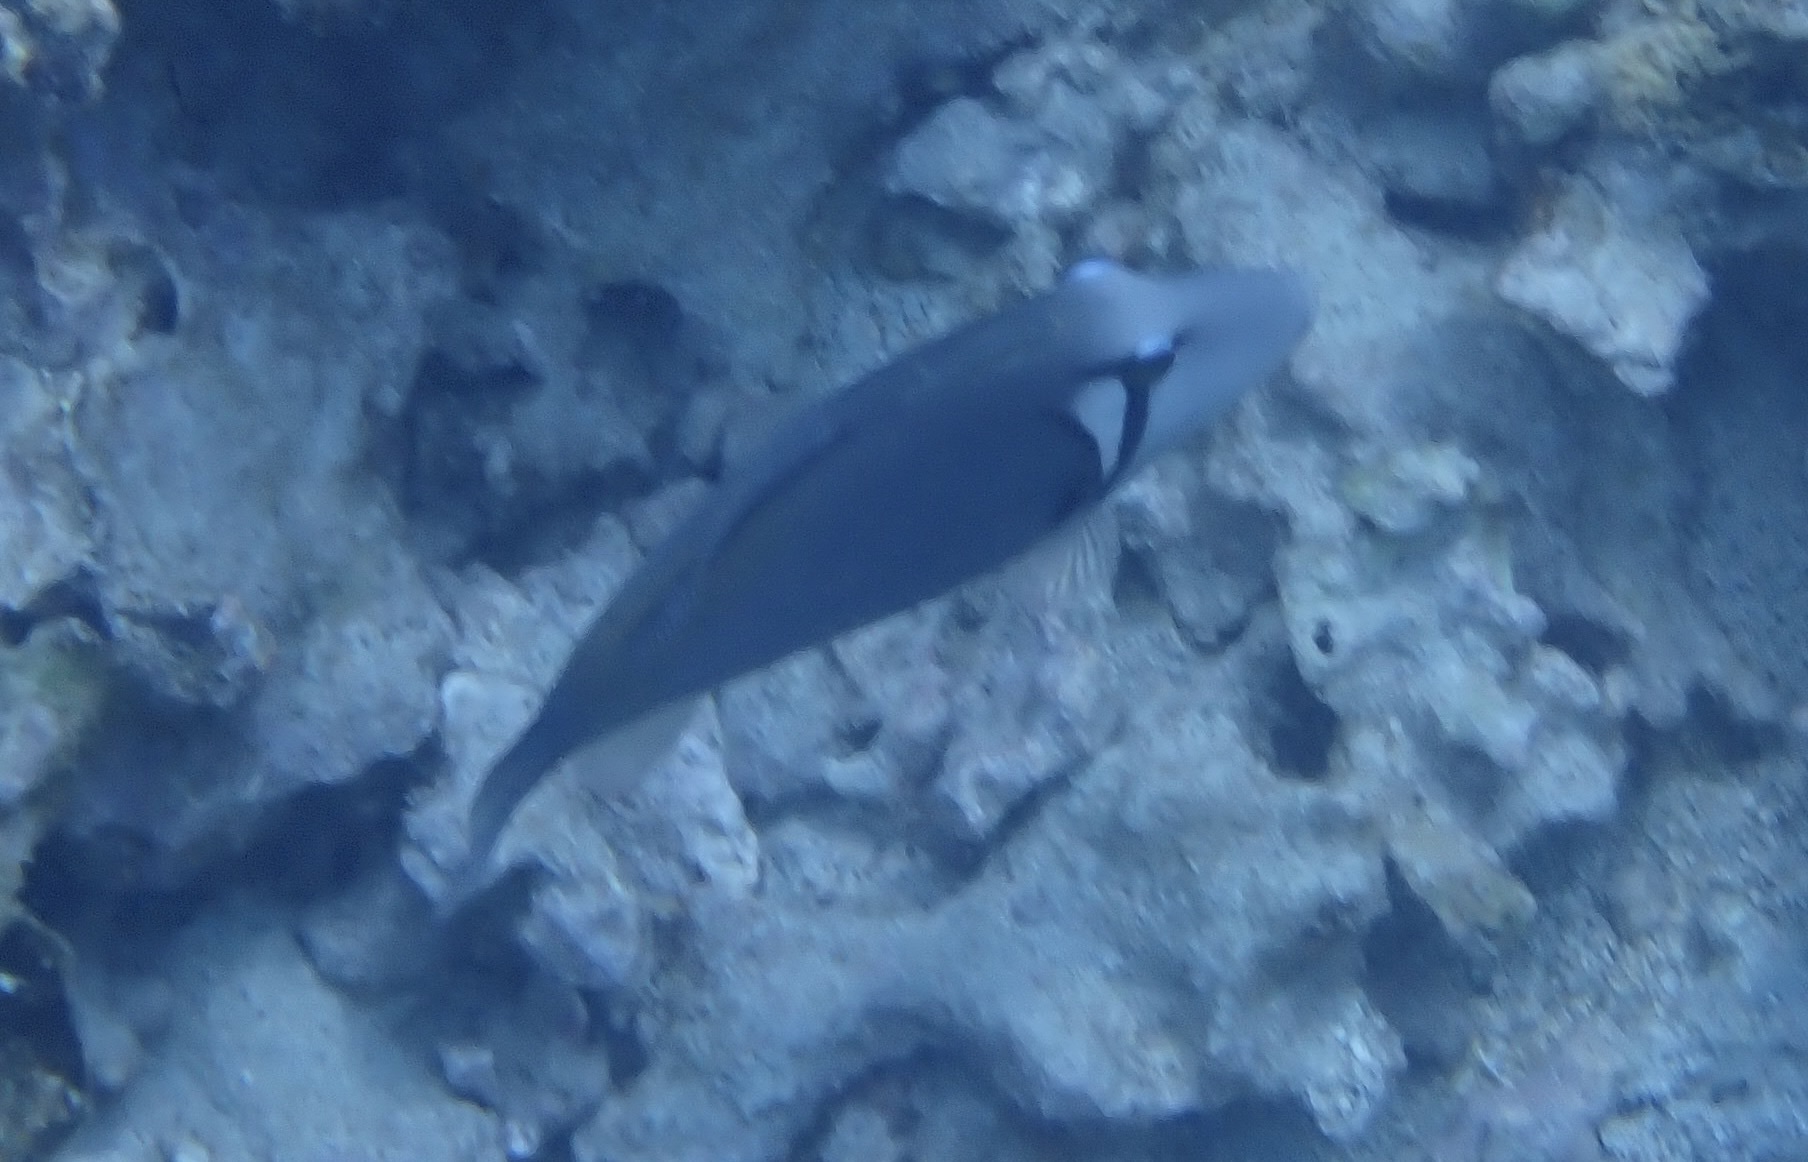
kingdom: Animalia
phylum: Chordata
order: Tetraodontiformes
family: Balistidae
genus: Sufflamen
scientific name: Sufflamen bursa
